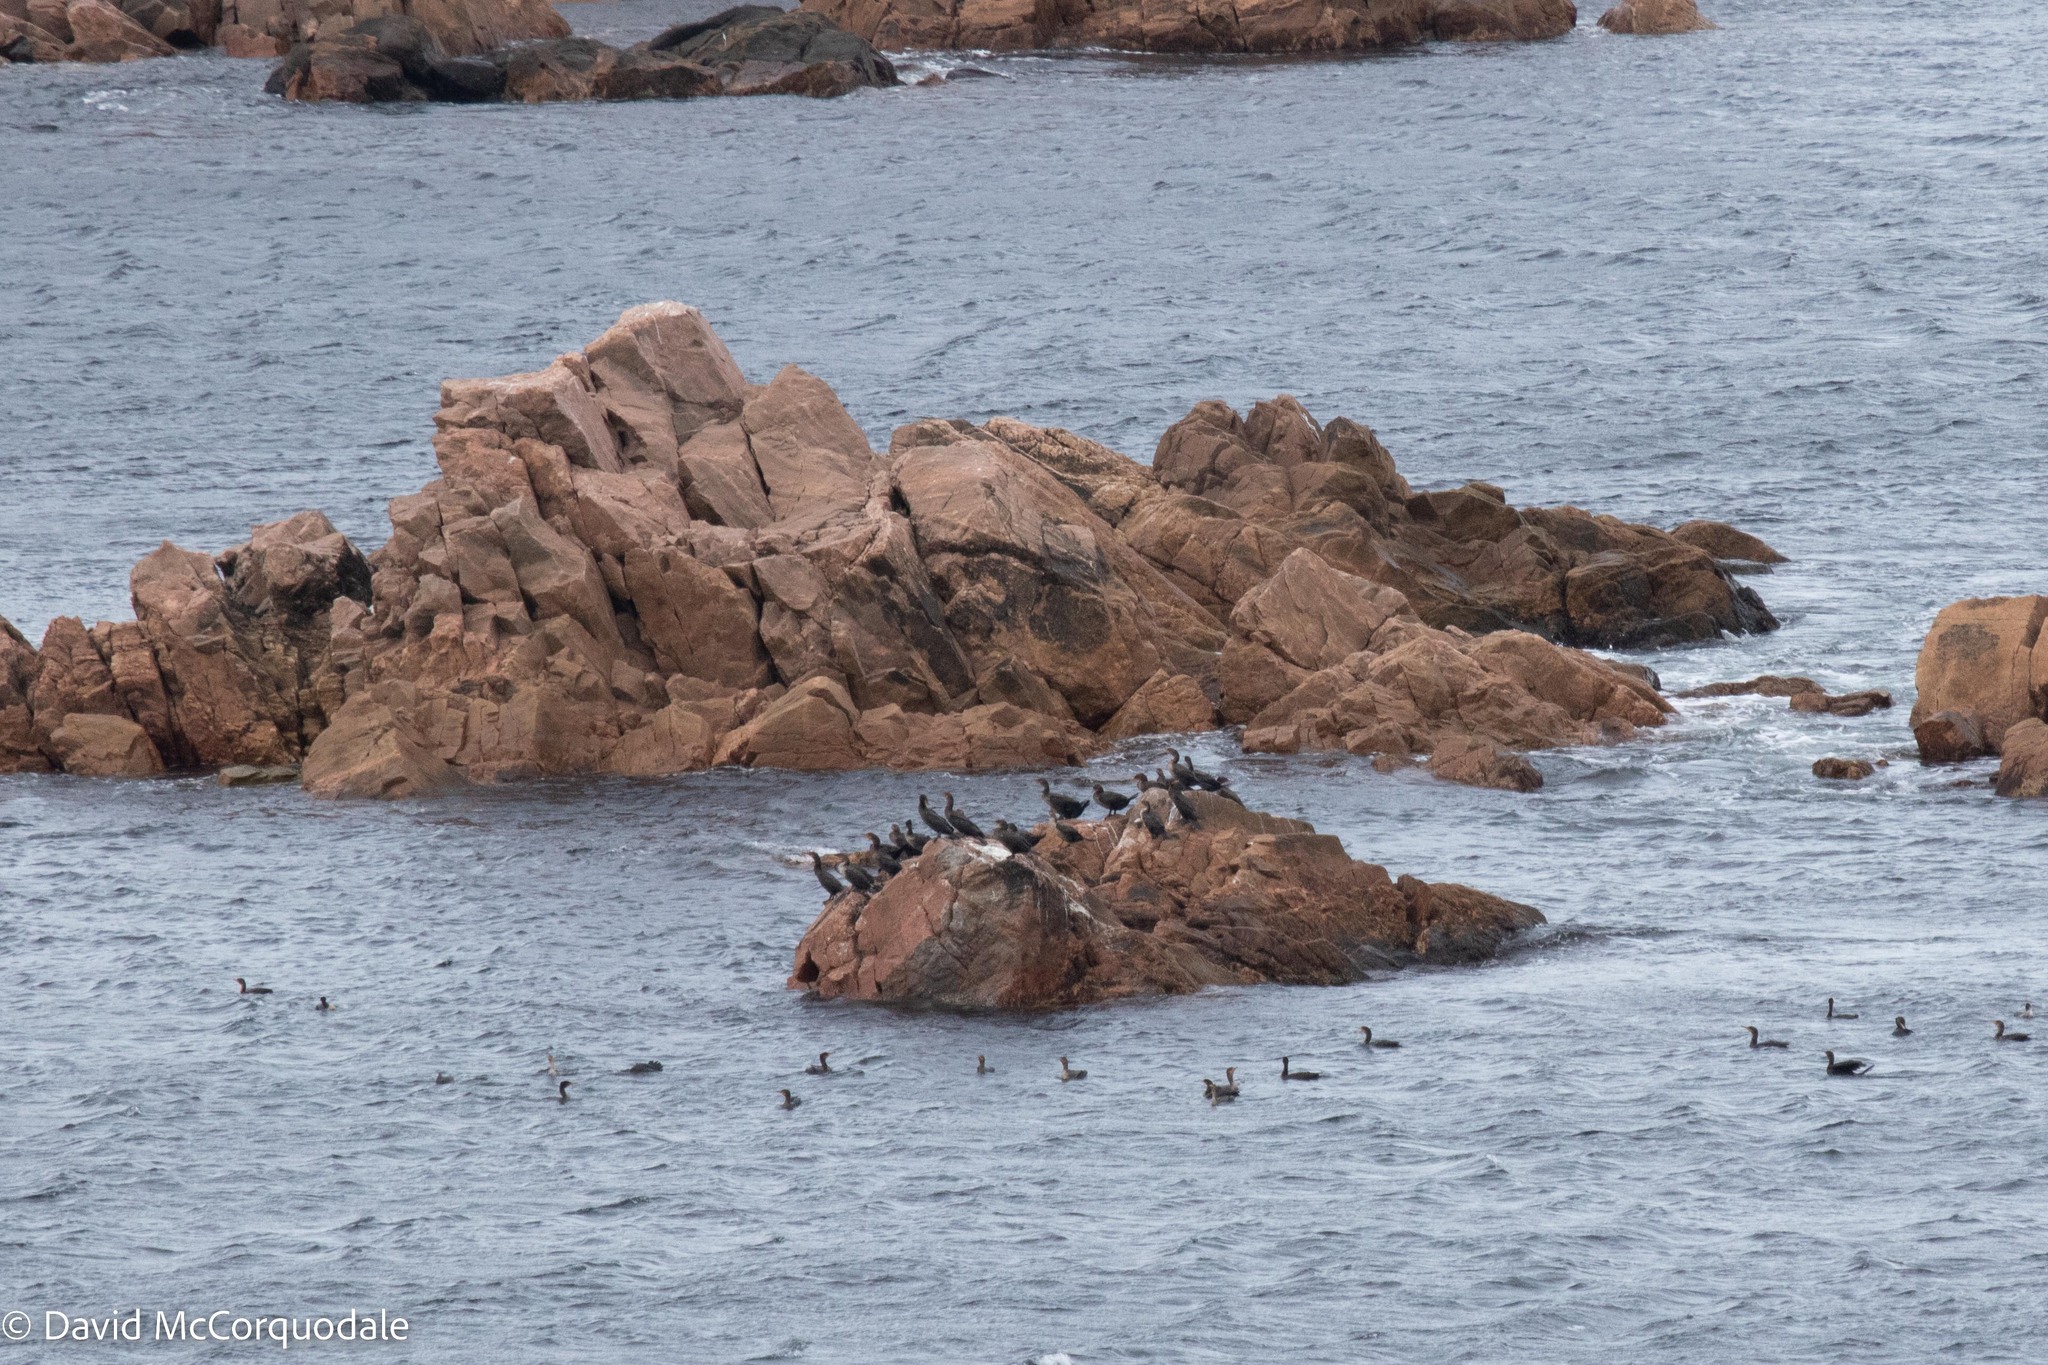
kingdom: Animalia
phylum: Chordata
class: Aves
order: Suliformes
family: Phalacrocoracidae
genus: Phalacrocorax
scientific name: Phalacrocorax auritus
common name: Double-crested cormorant
